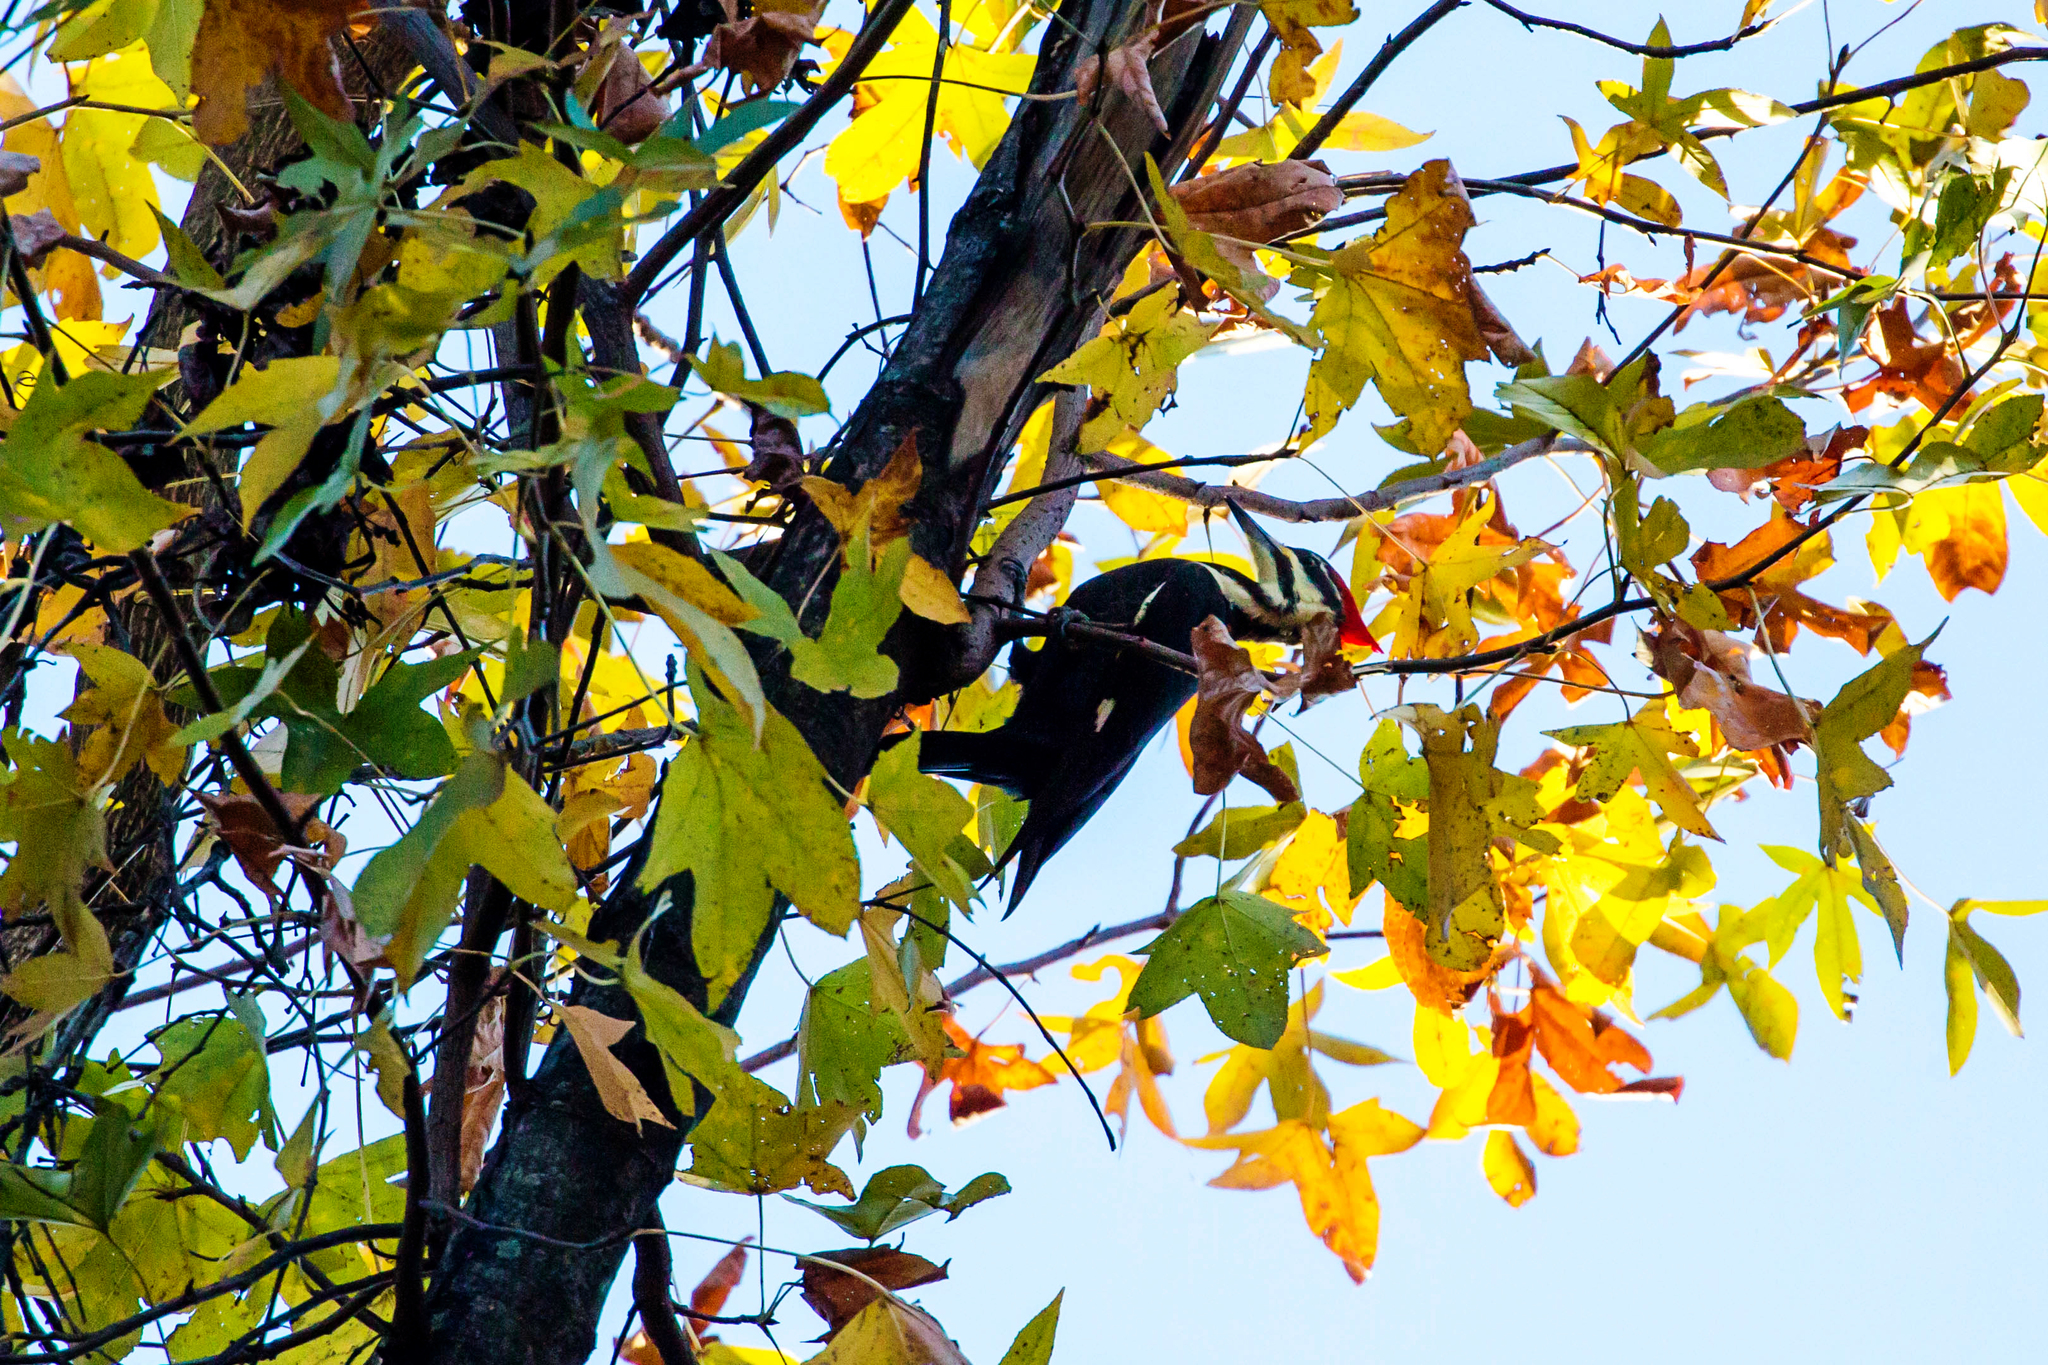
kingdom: Animalia
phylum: Chordata
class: Aves
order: Piciformes
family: Picidae
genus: Dryocopus
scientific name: Dryocopus pileatus
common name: Pileated woodpecker
